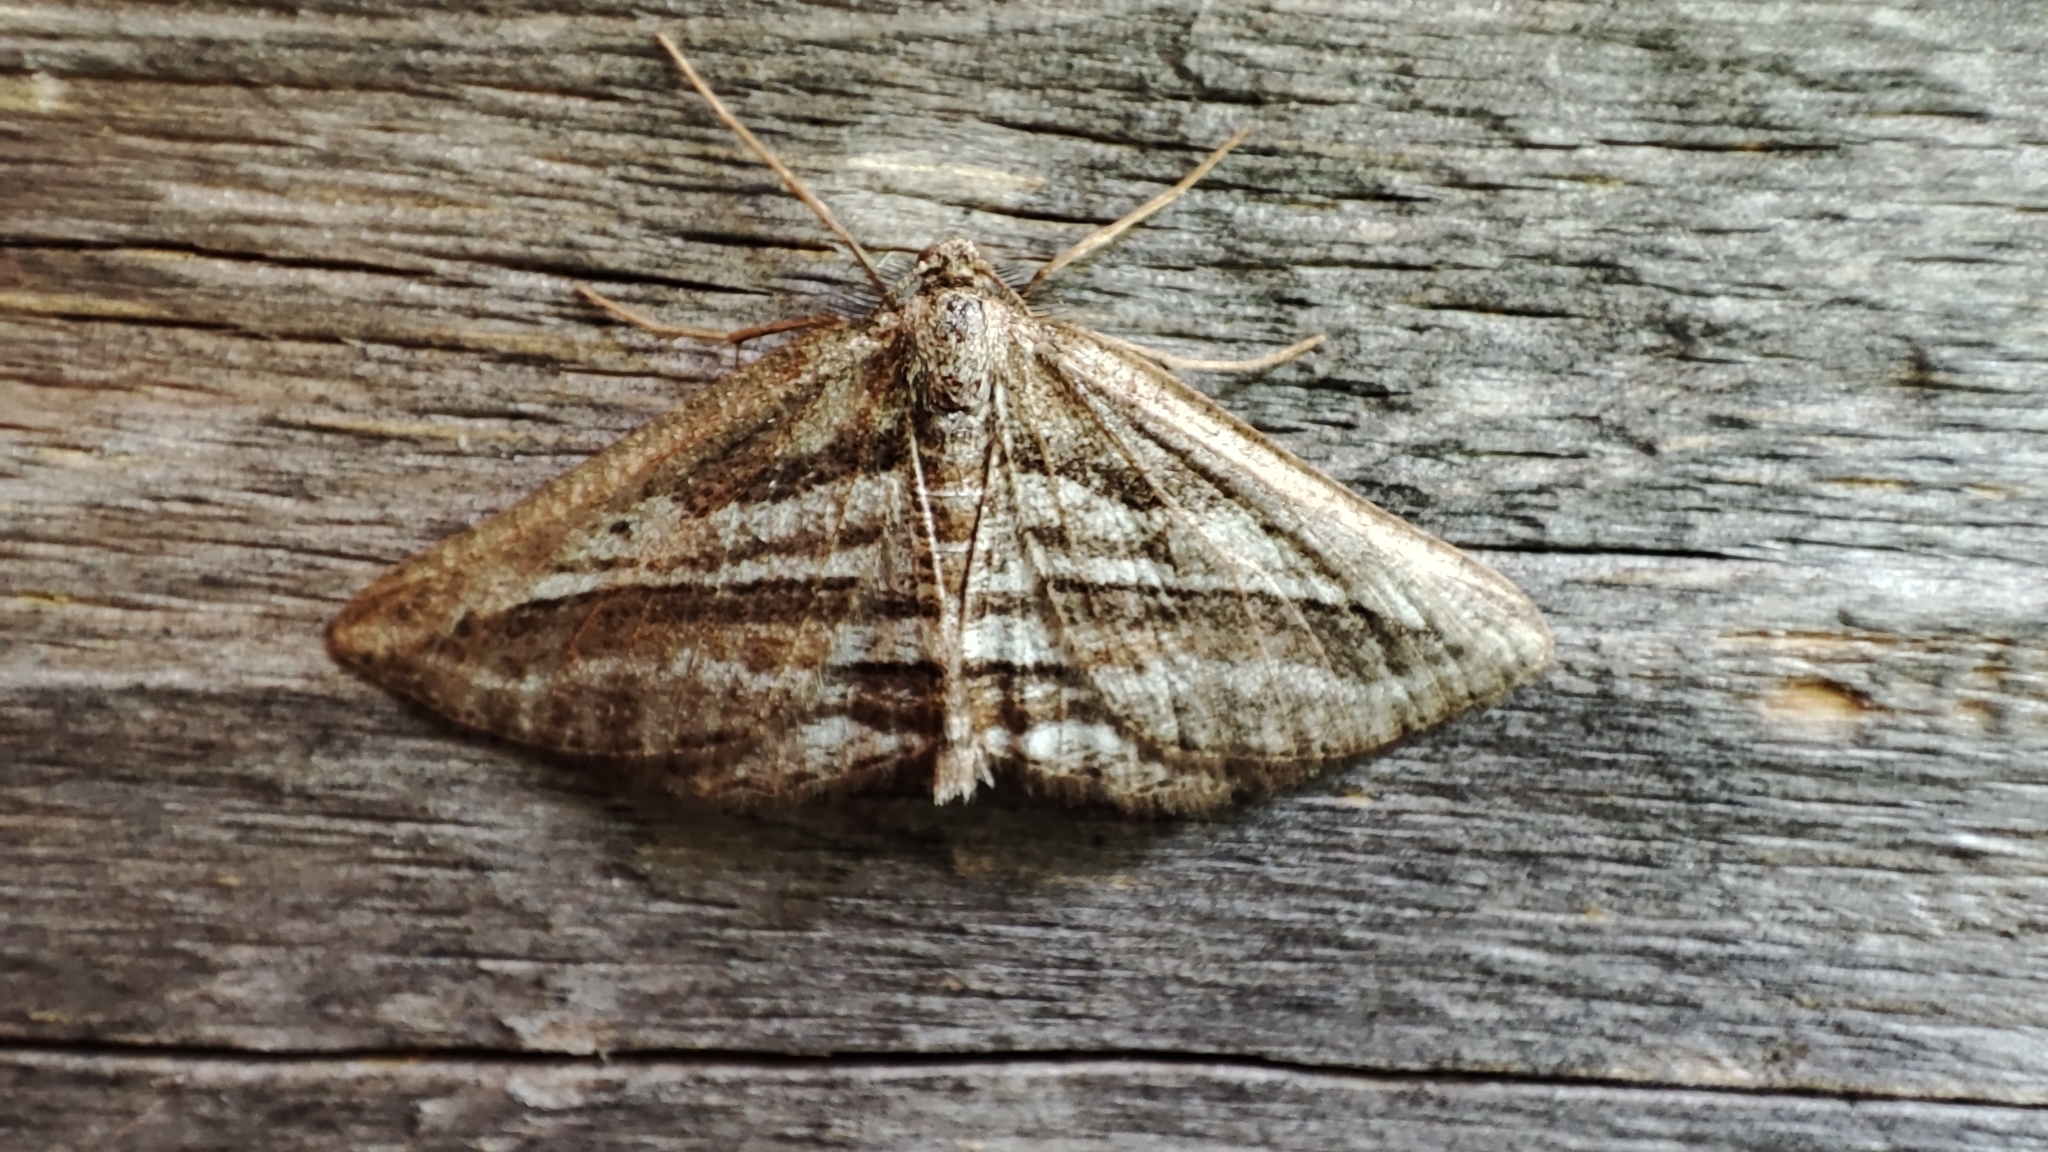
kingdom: Animalia
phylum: Arthropoda
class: Insecta
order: Lepidoptera
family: Geometridae
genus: Phthonandria
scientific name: Phthonandria
